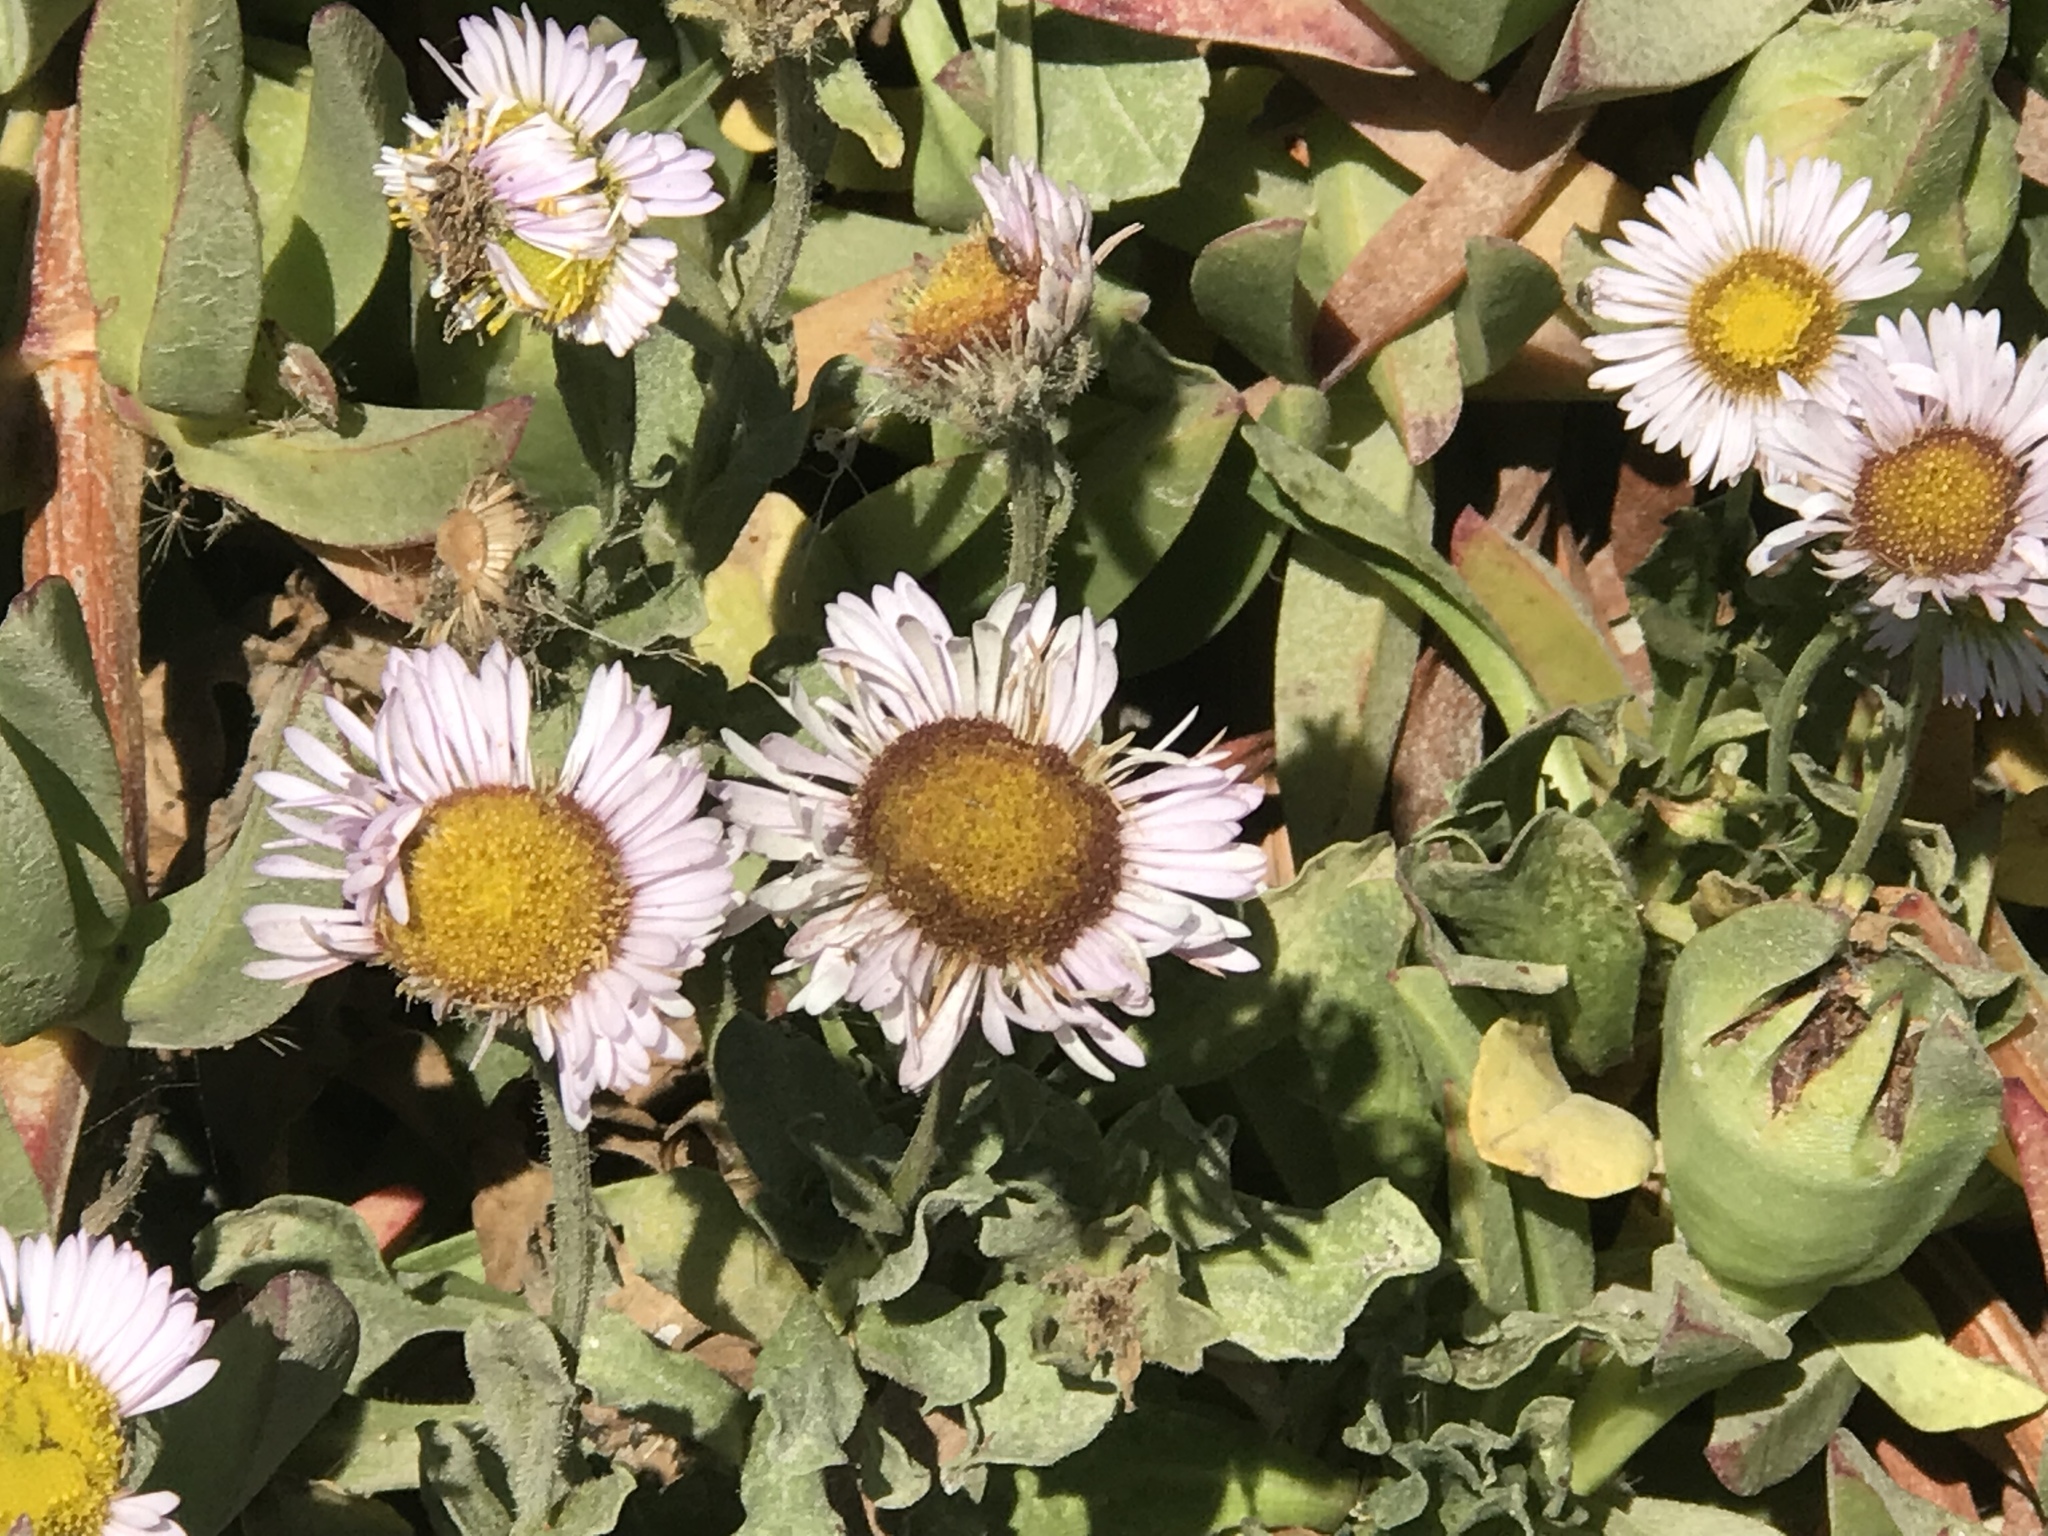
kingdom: Plantae
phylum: Tracheophyta
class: Magnoliopsida
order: Asterales
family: Asteraceae
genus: Erigeron
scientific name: Erigeron glaucus
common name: Seaside daisy
